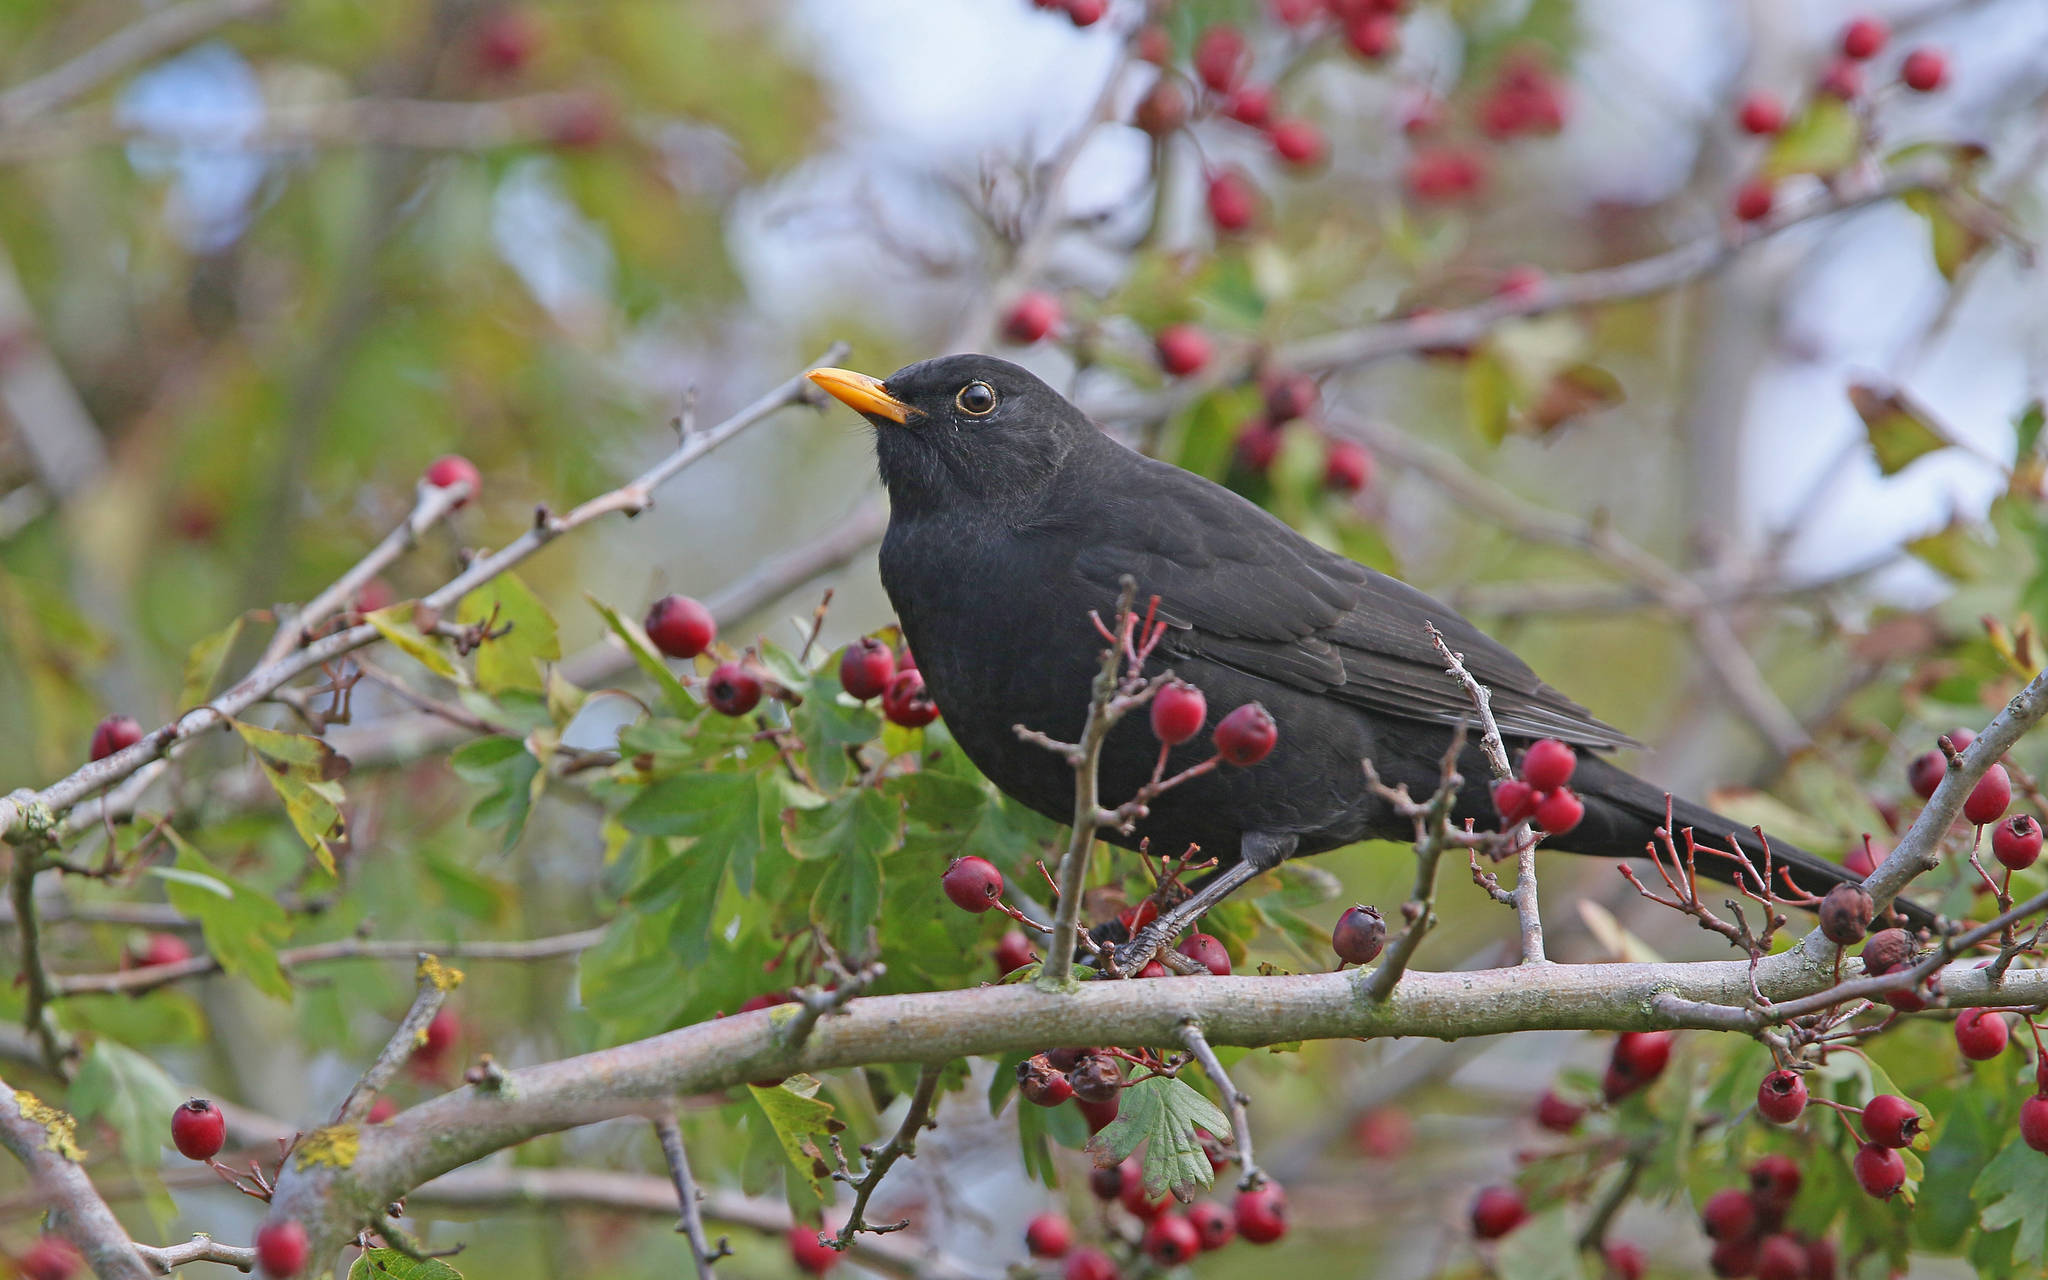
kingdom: Animalia
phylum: Chordata
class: Aves
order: Passeriformes
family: Turdidae
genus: Turdus
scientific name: Turdus merula
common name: Common blackbird
